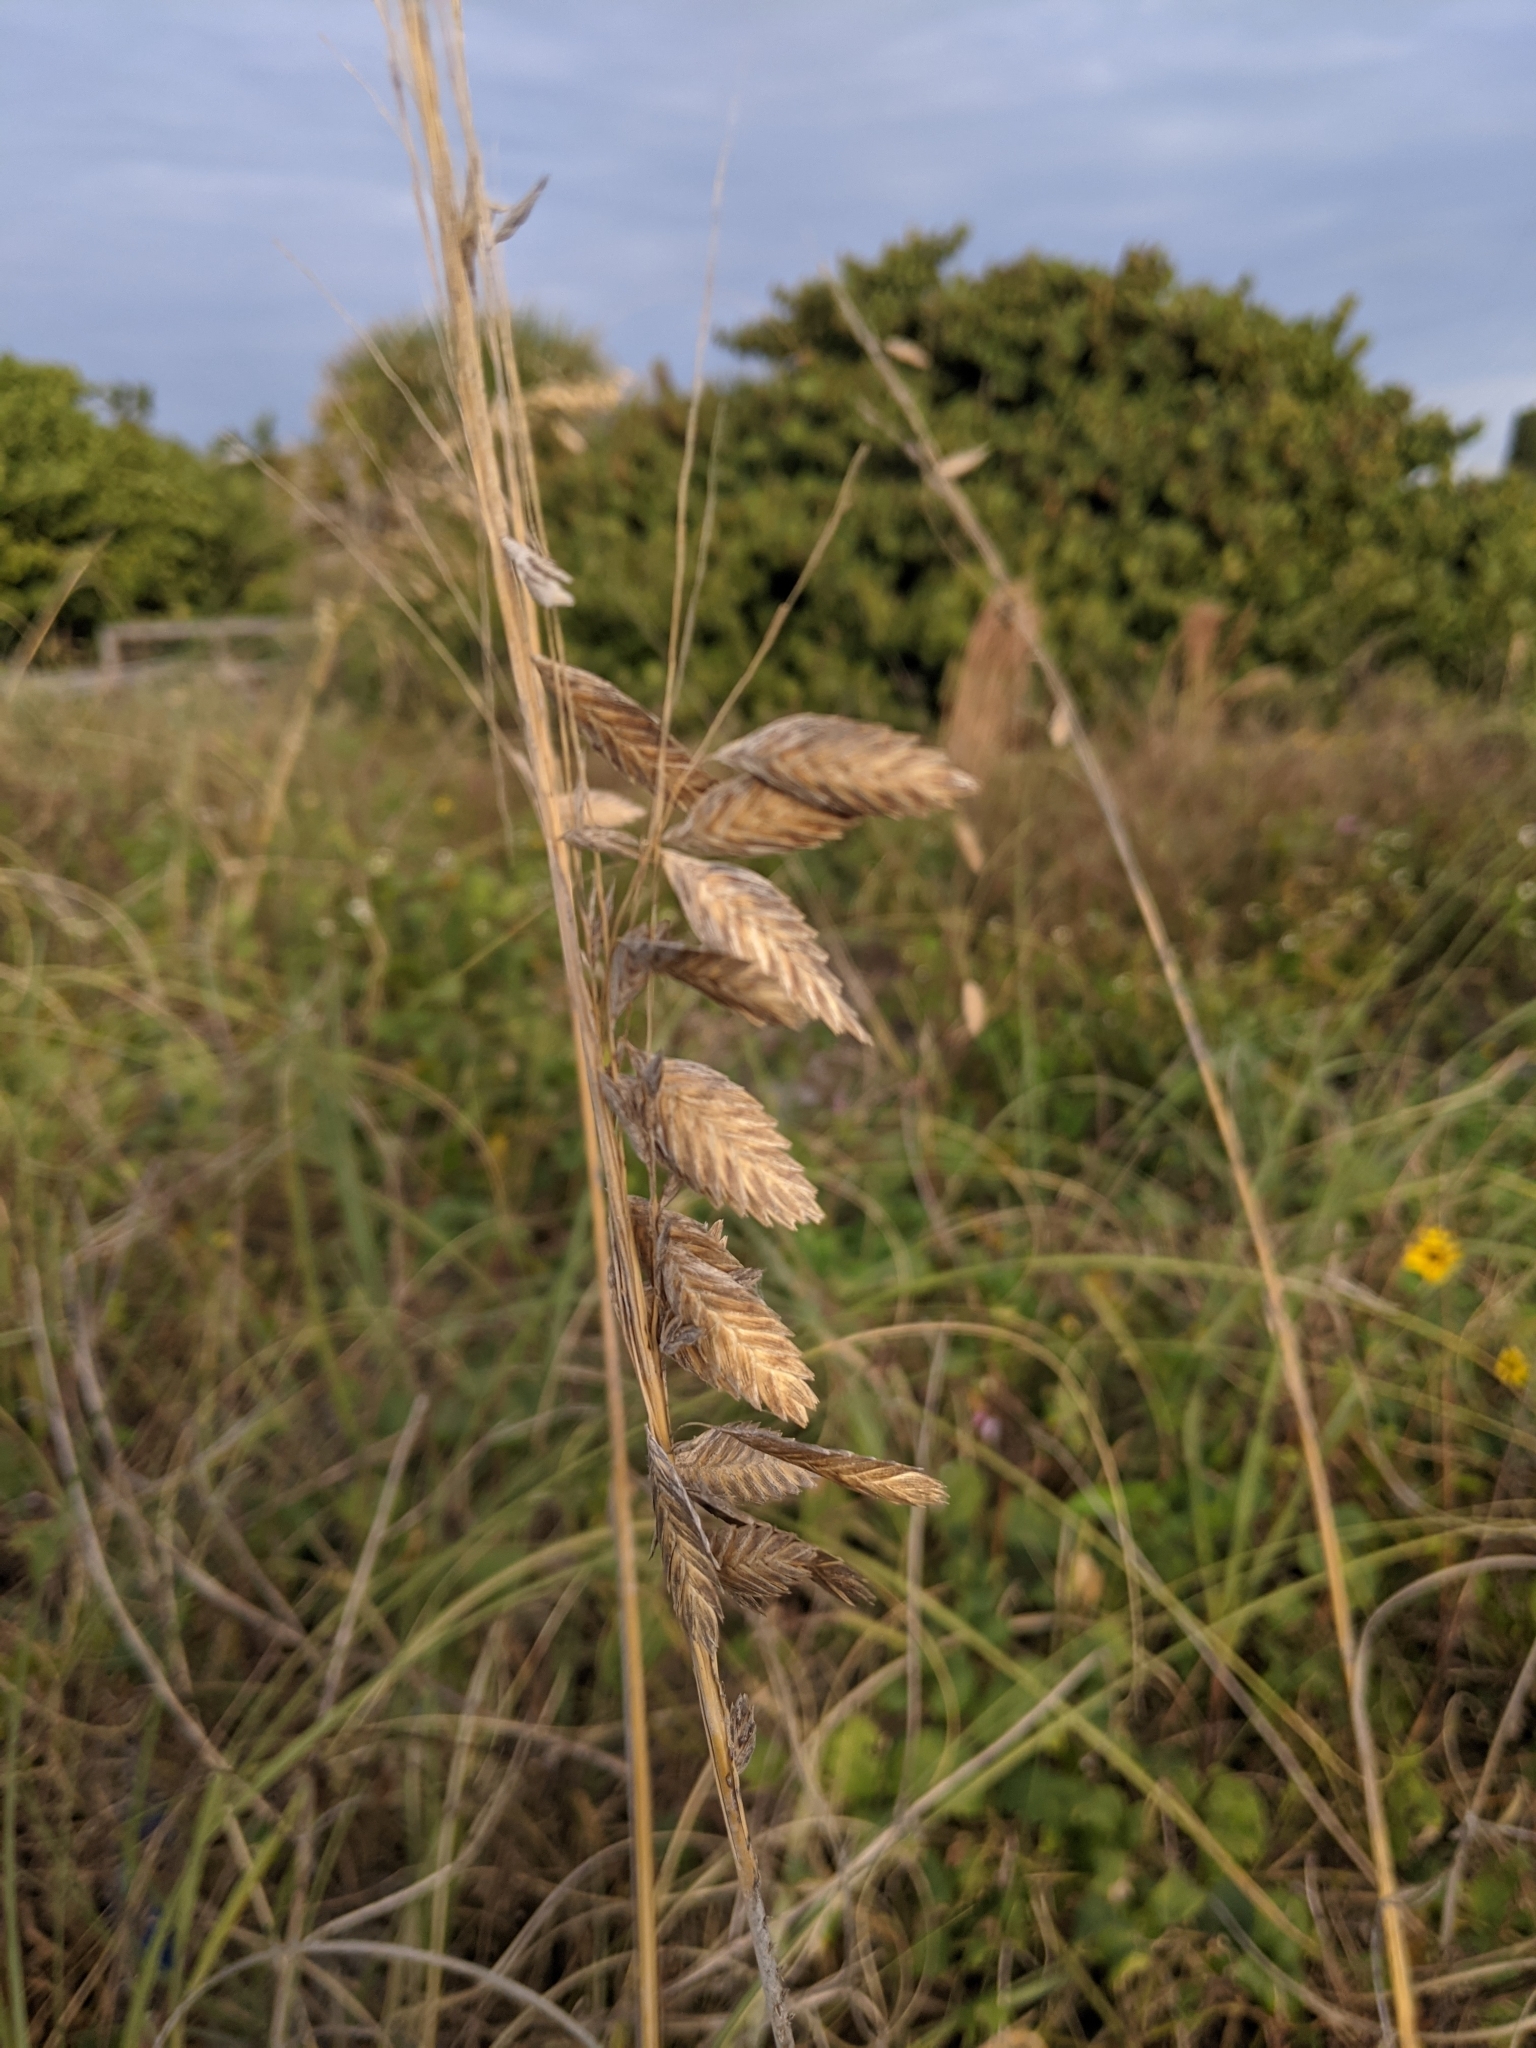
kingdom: Plantae
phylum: Tracheophyta
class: Liliopsida
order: Poales
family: Poaceae
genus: Uniola
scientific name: Uniola paniculata
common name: Seaside-oats
